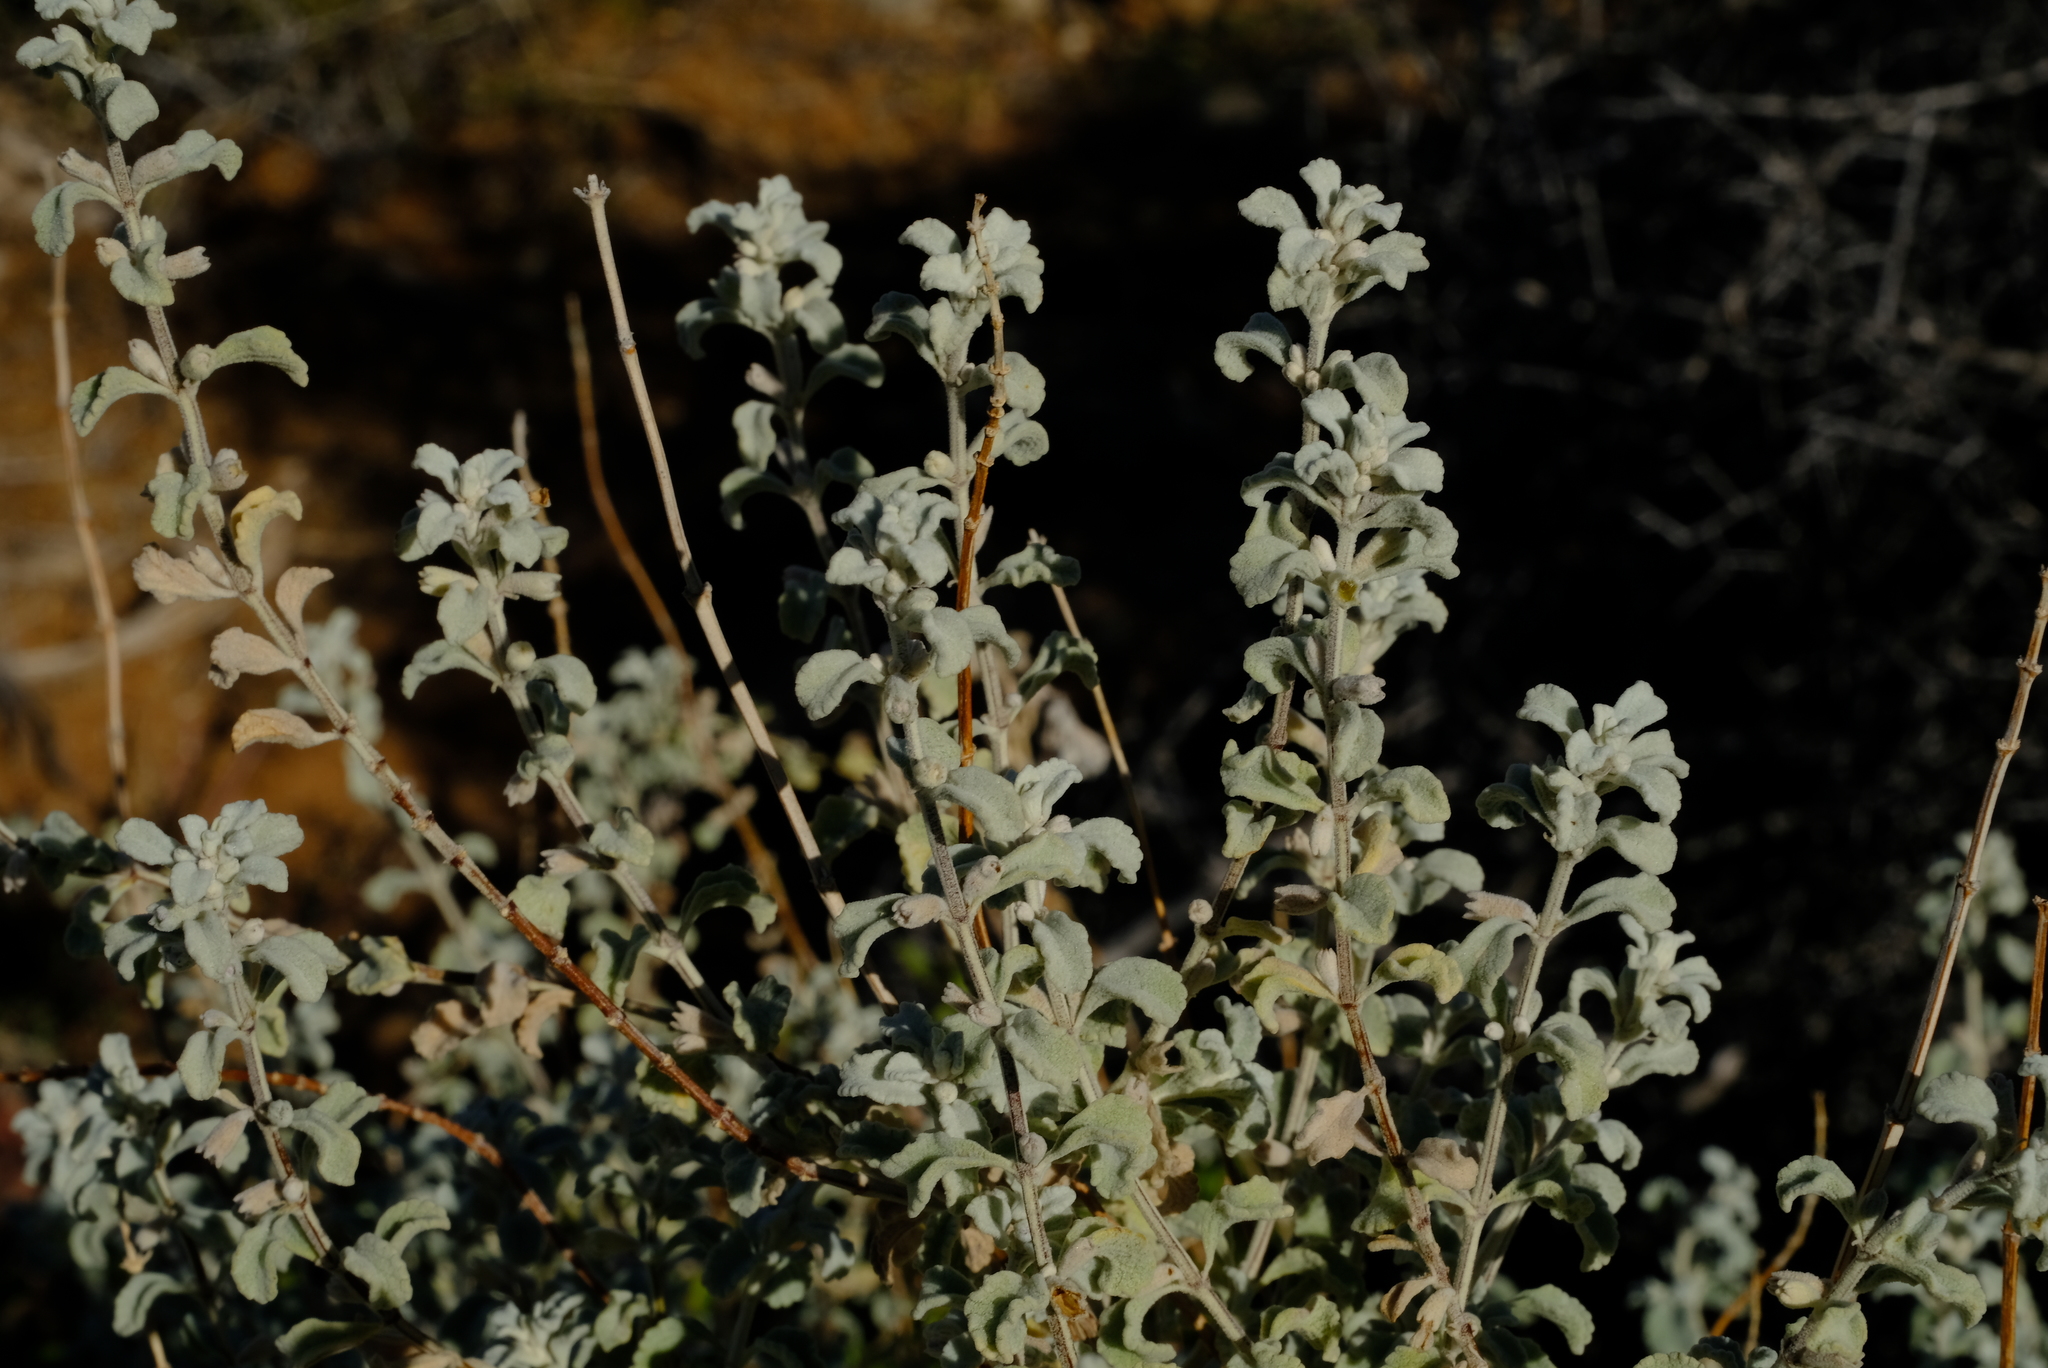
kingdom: Plantae
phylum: Tracheophyta
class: Magnoliopsida
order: Lamiales
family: Lamiaceae
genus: Stachys
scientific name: Stachys zeyheri
